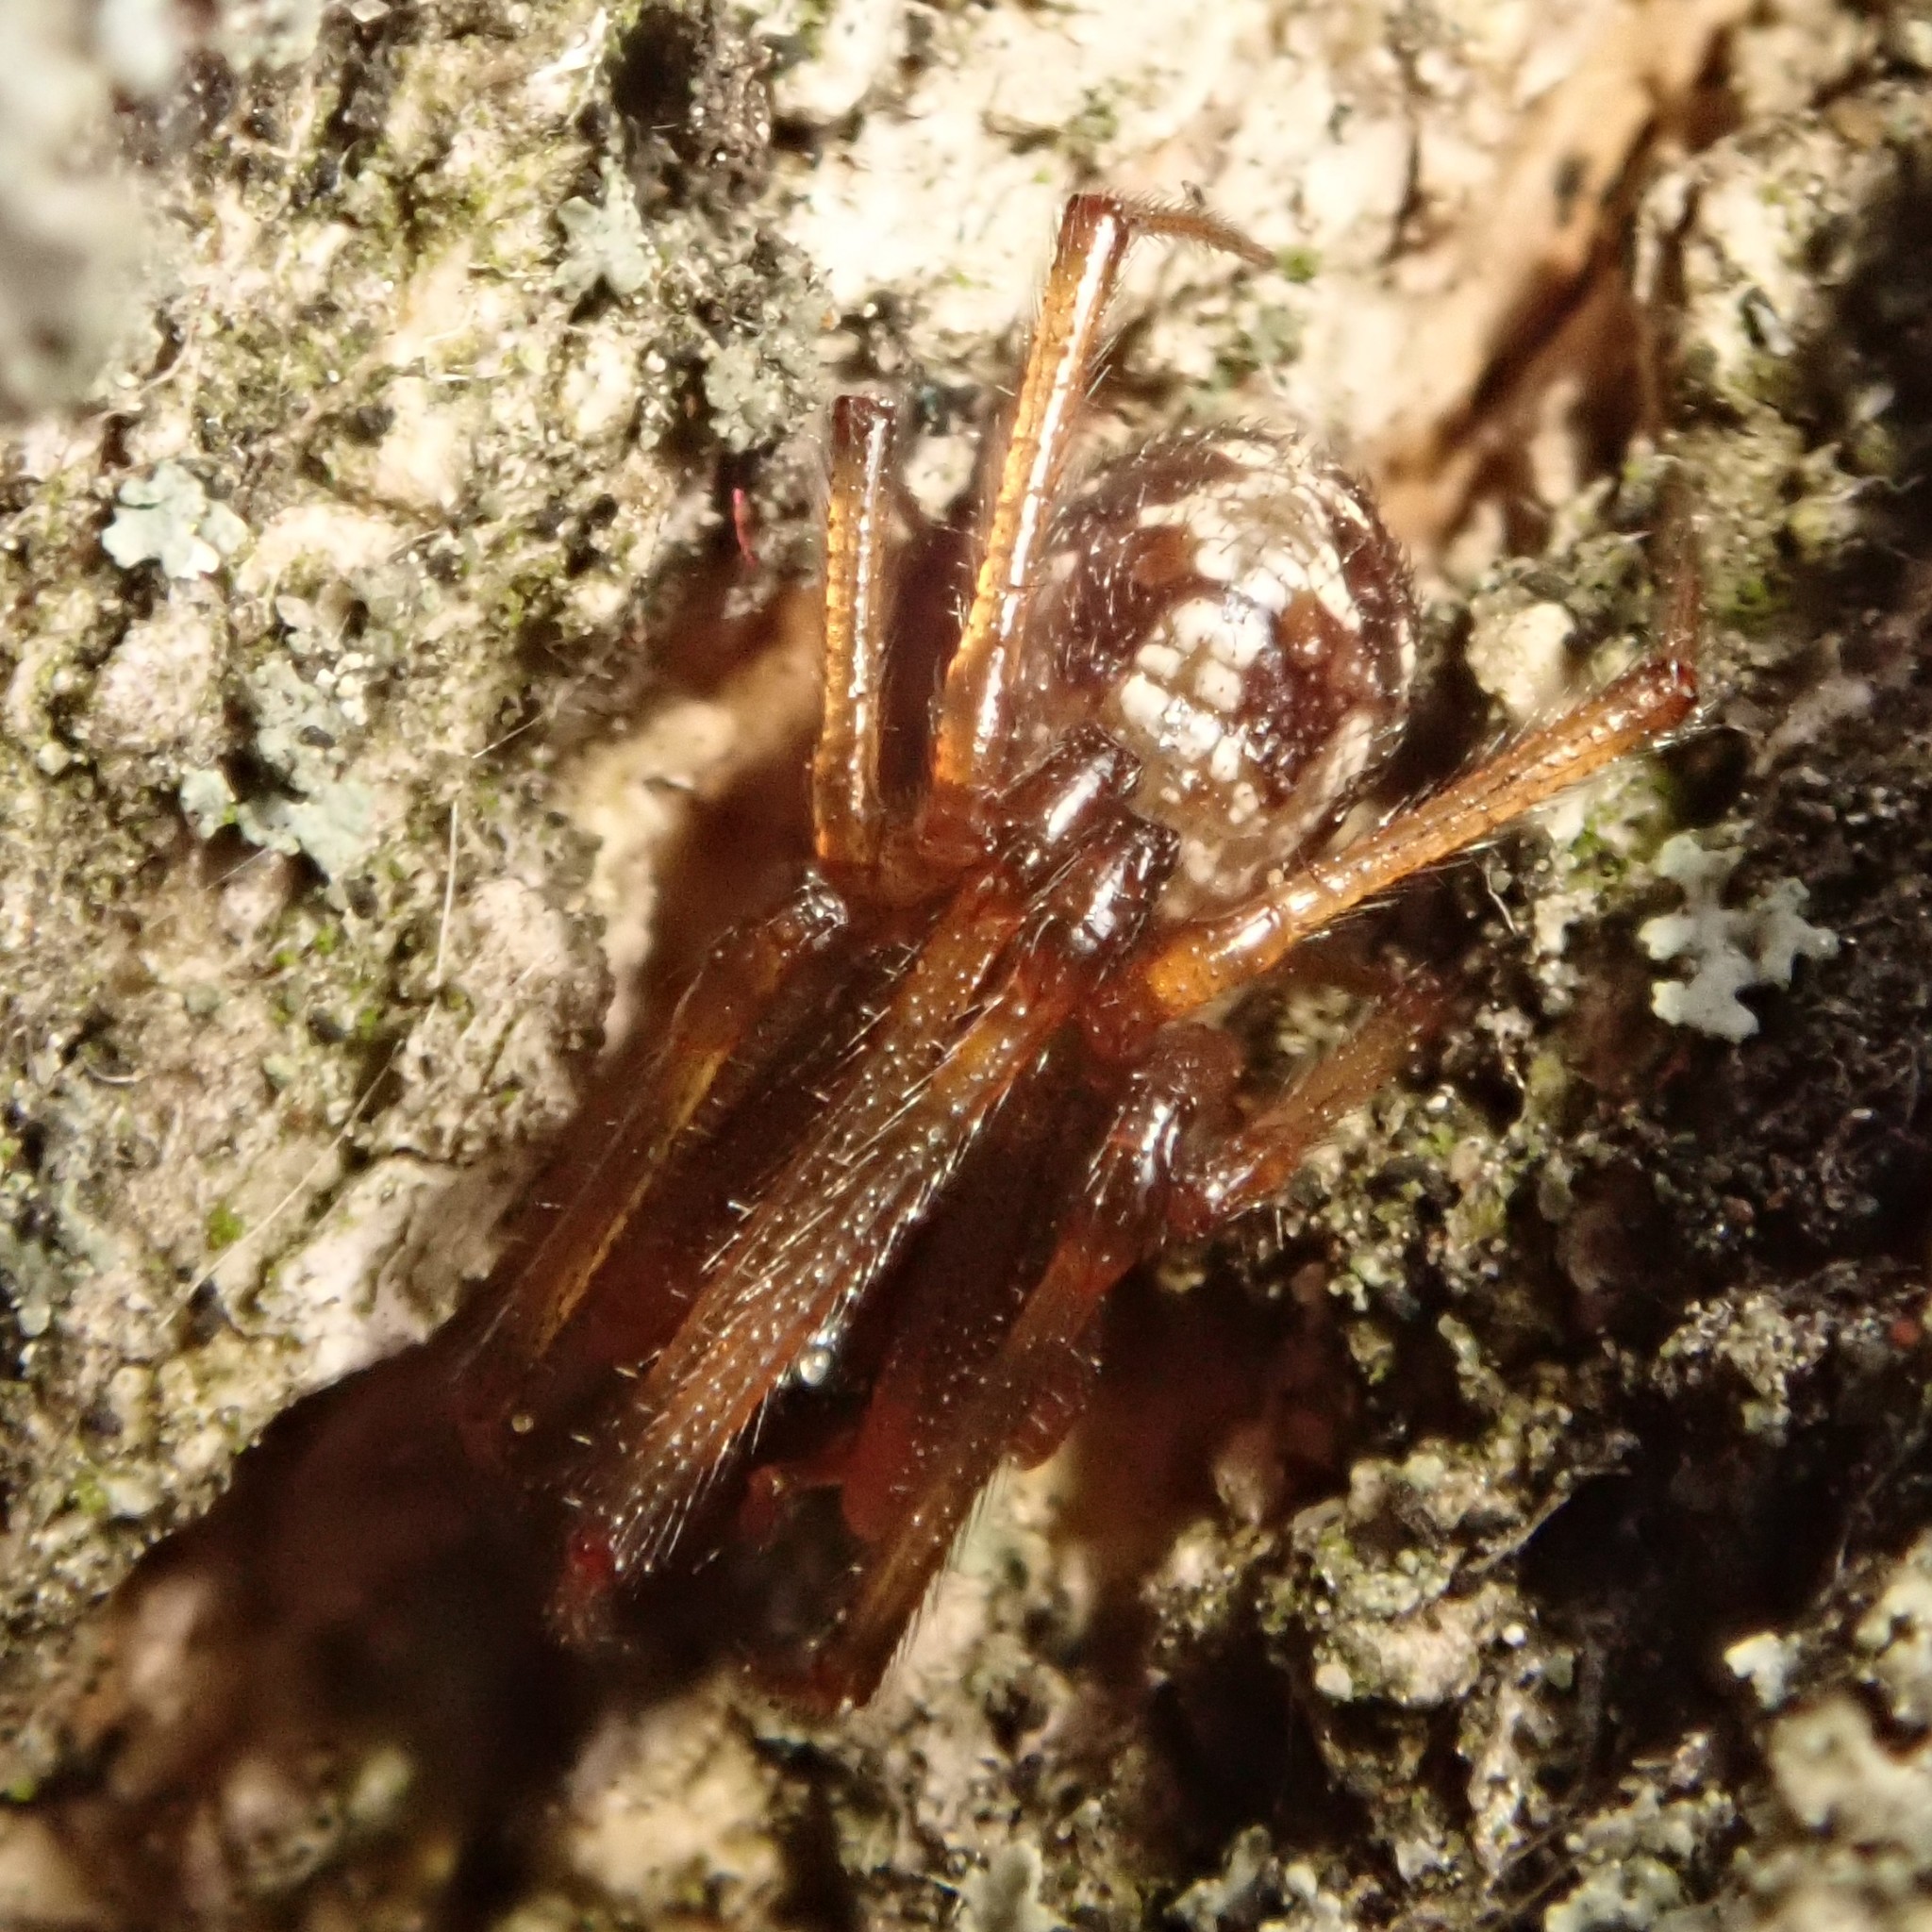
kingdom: Animalia
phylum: Arthropoda
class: Arachnida
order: Araneae
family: Theridiidae
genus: Steatoda
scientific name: Steatoda triangulosa
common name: Triangulate bud spider
